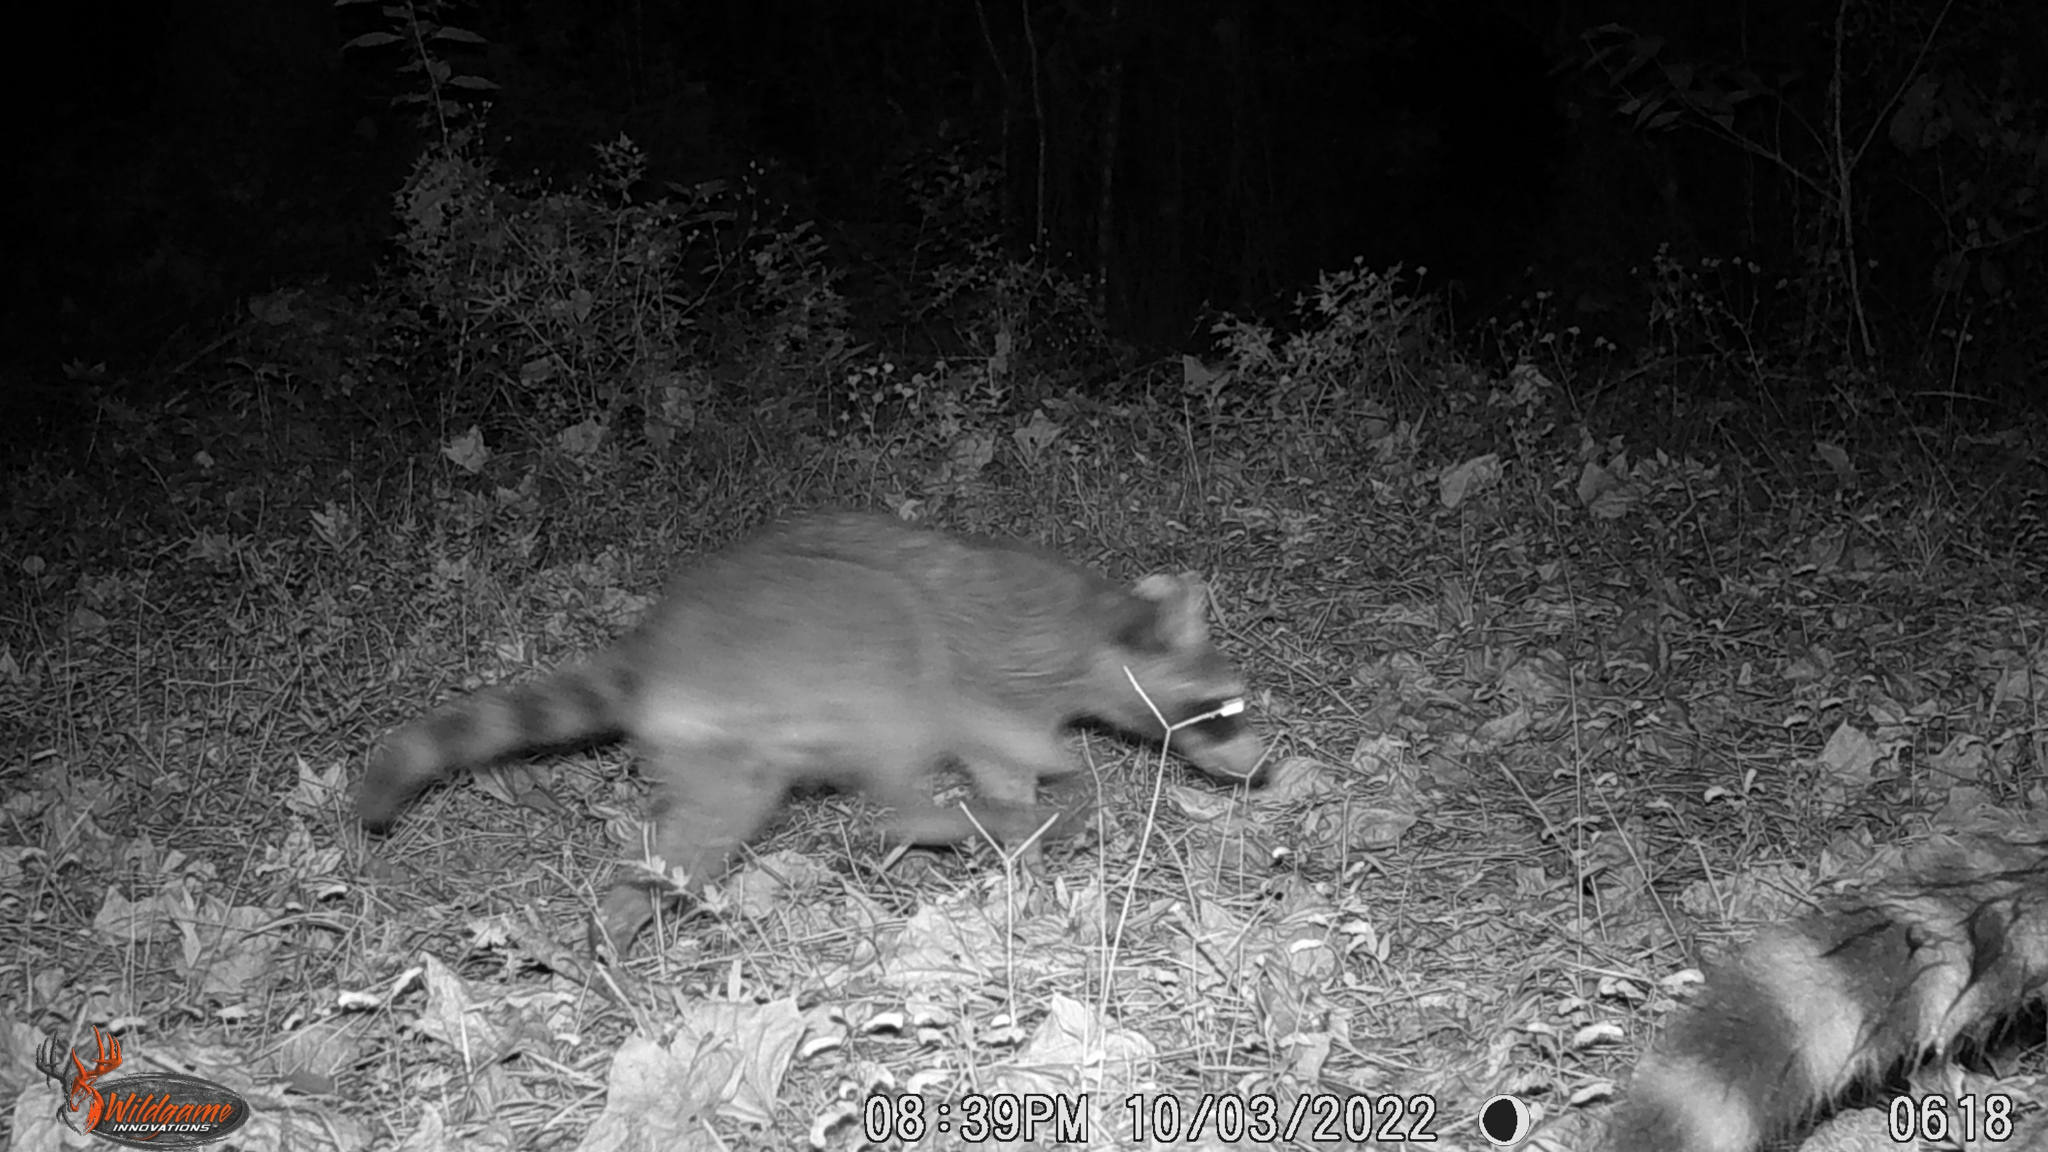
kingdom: Animalia
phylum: Chordata
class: Mammalia
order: Carnivora
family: Procyonidae
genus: Procyon
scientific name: Procyon lotor
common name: Raccoon
